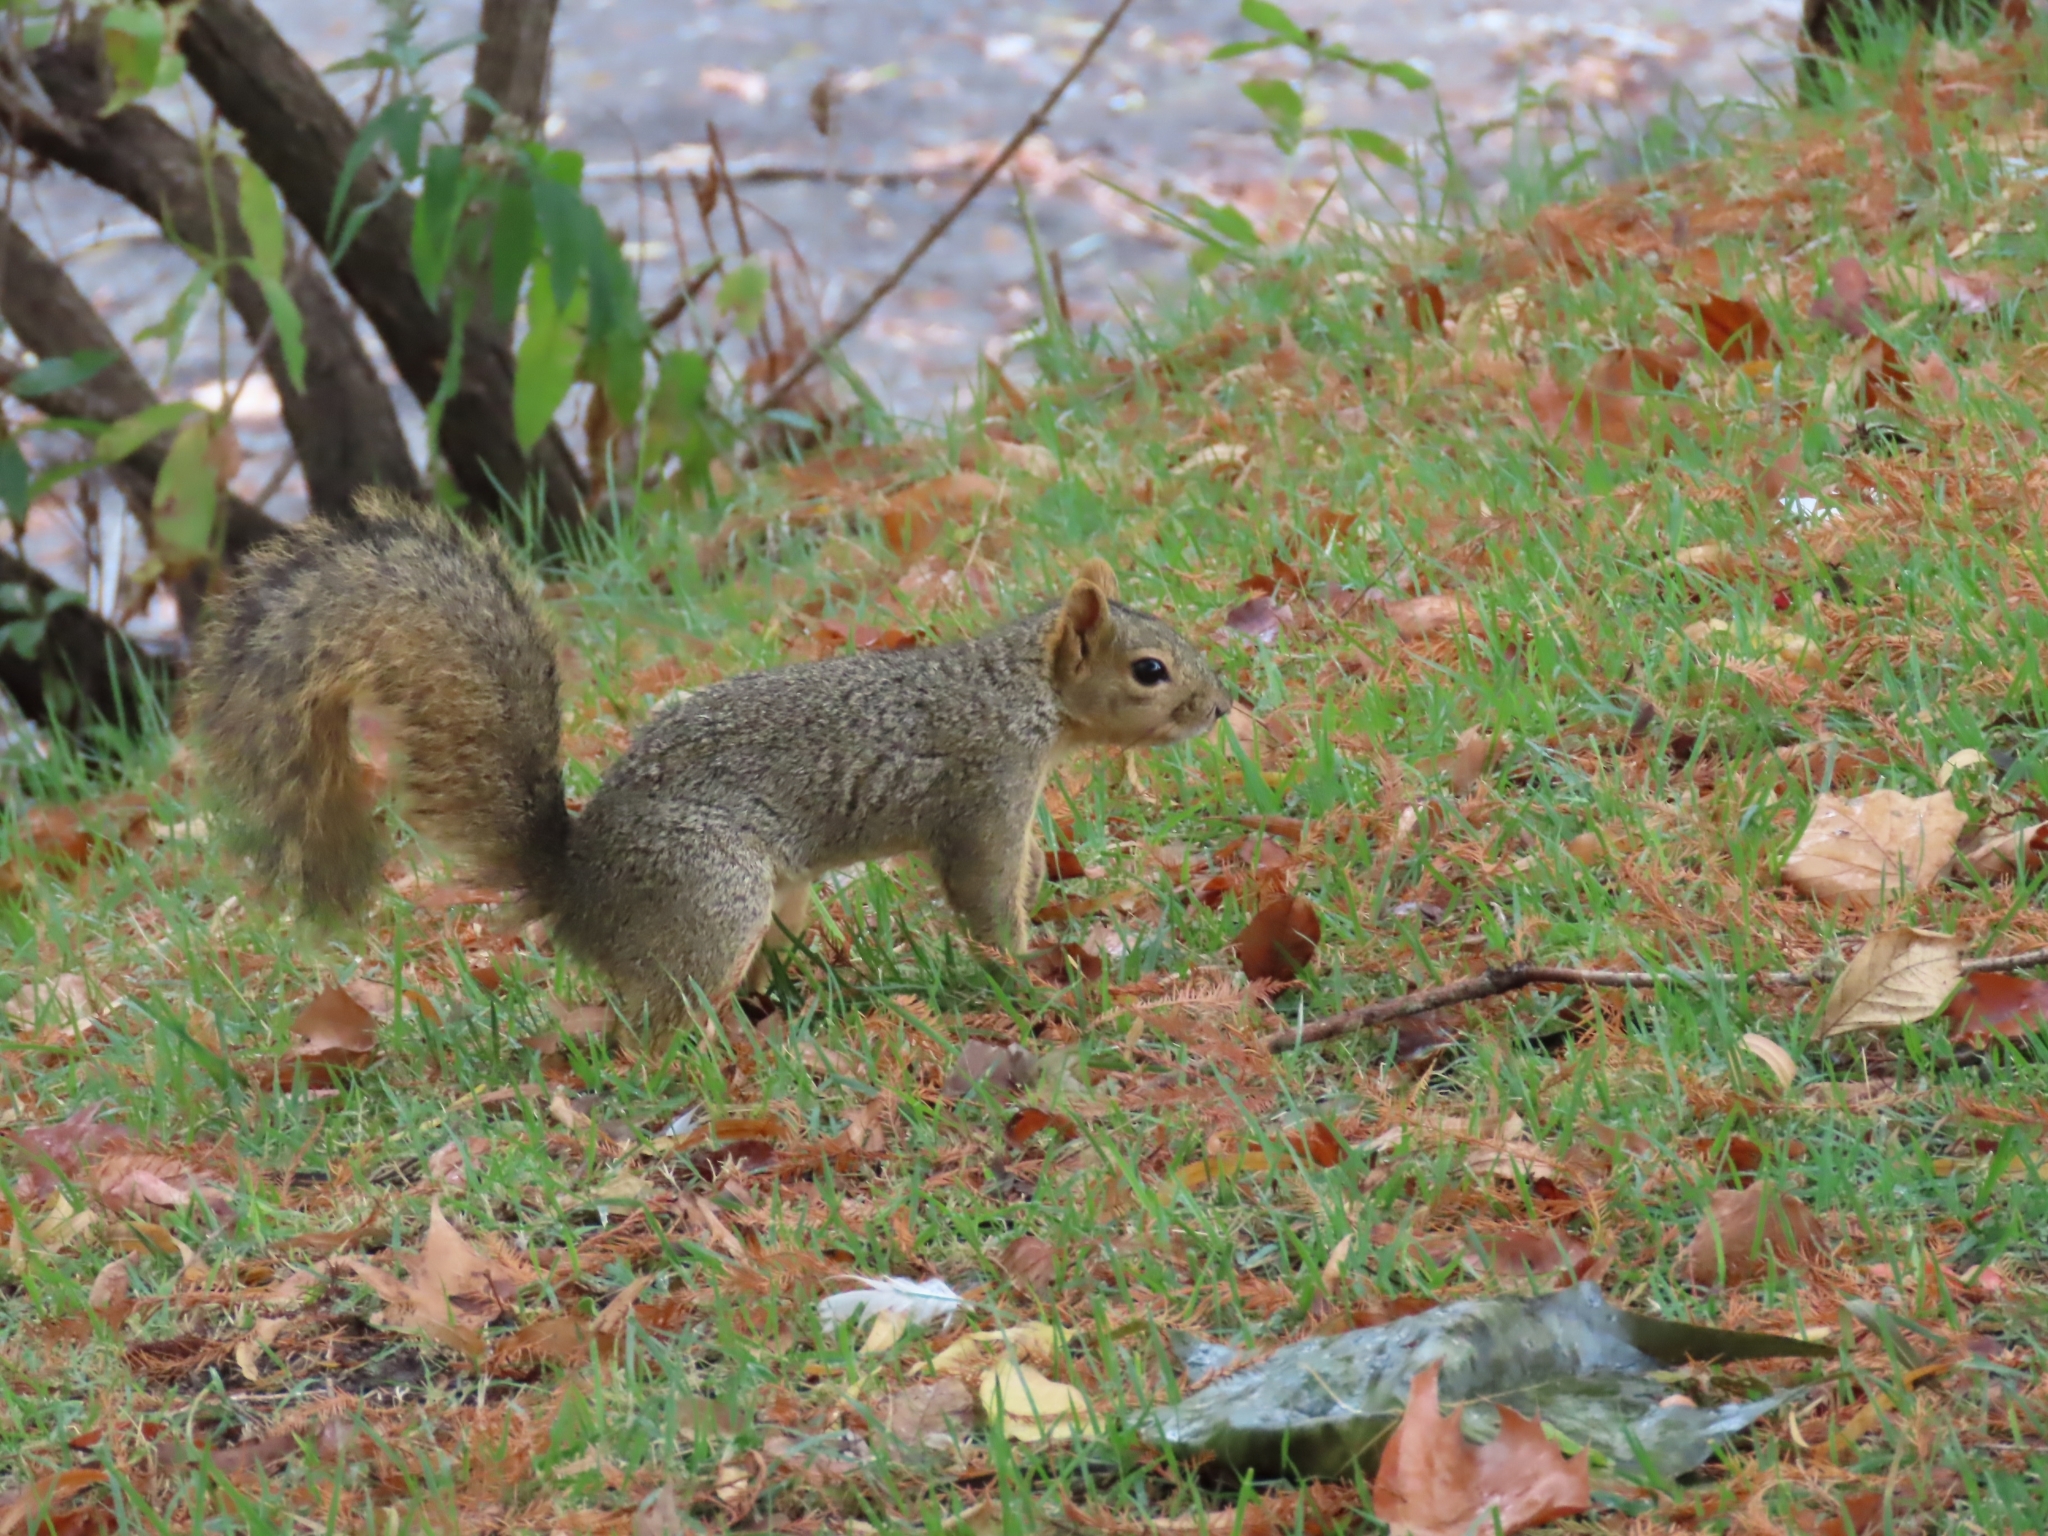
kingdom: Animalia
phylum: Chordata
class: Mammalia
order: Rodentia
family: Sciuridae
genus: Sciurus
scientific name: Sciurus niger
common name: Fox squirrel
